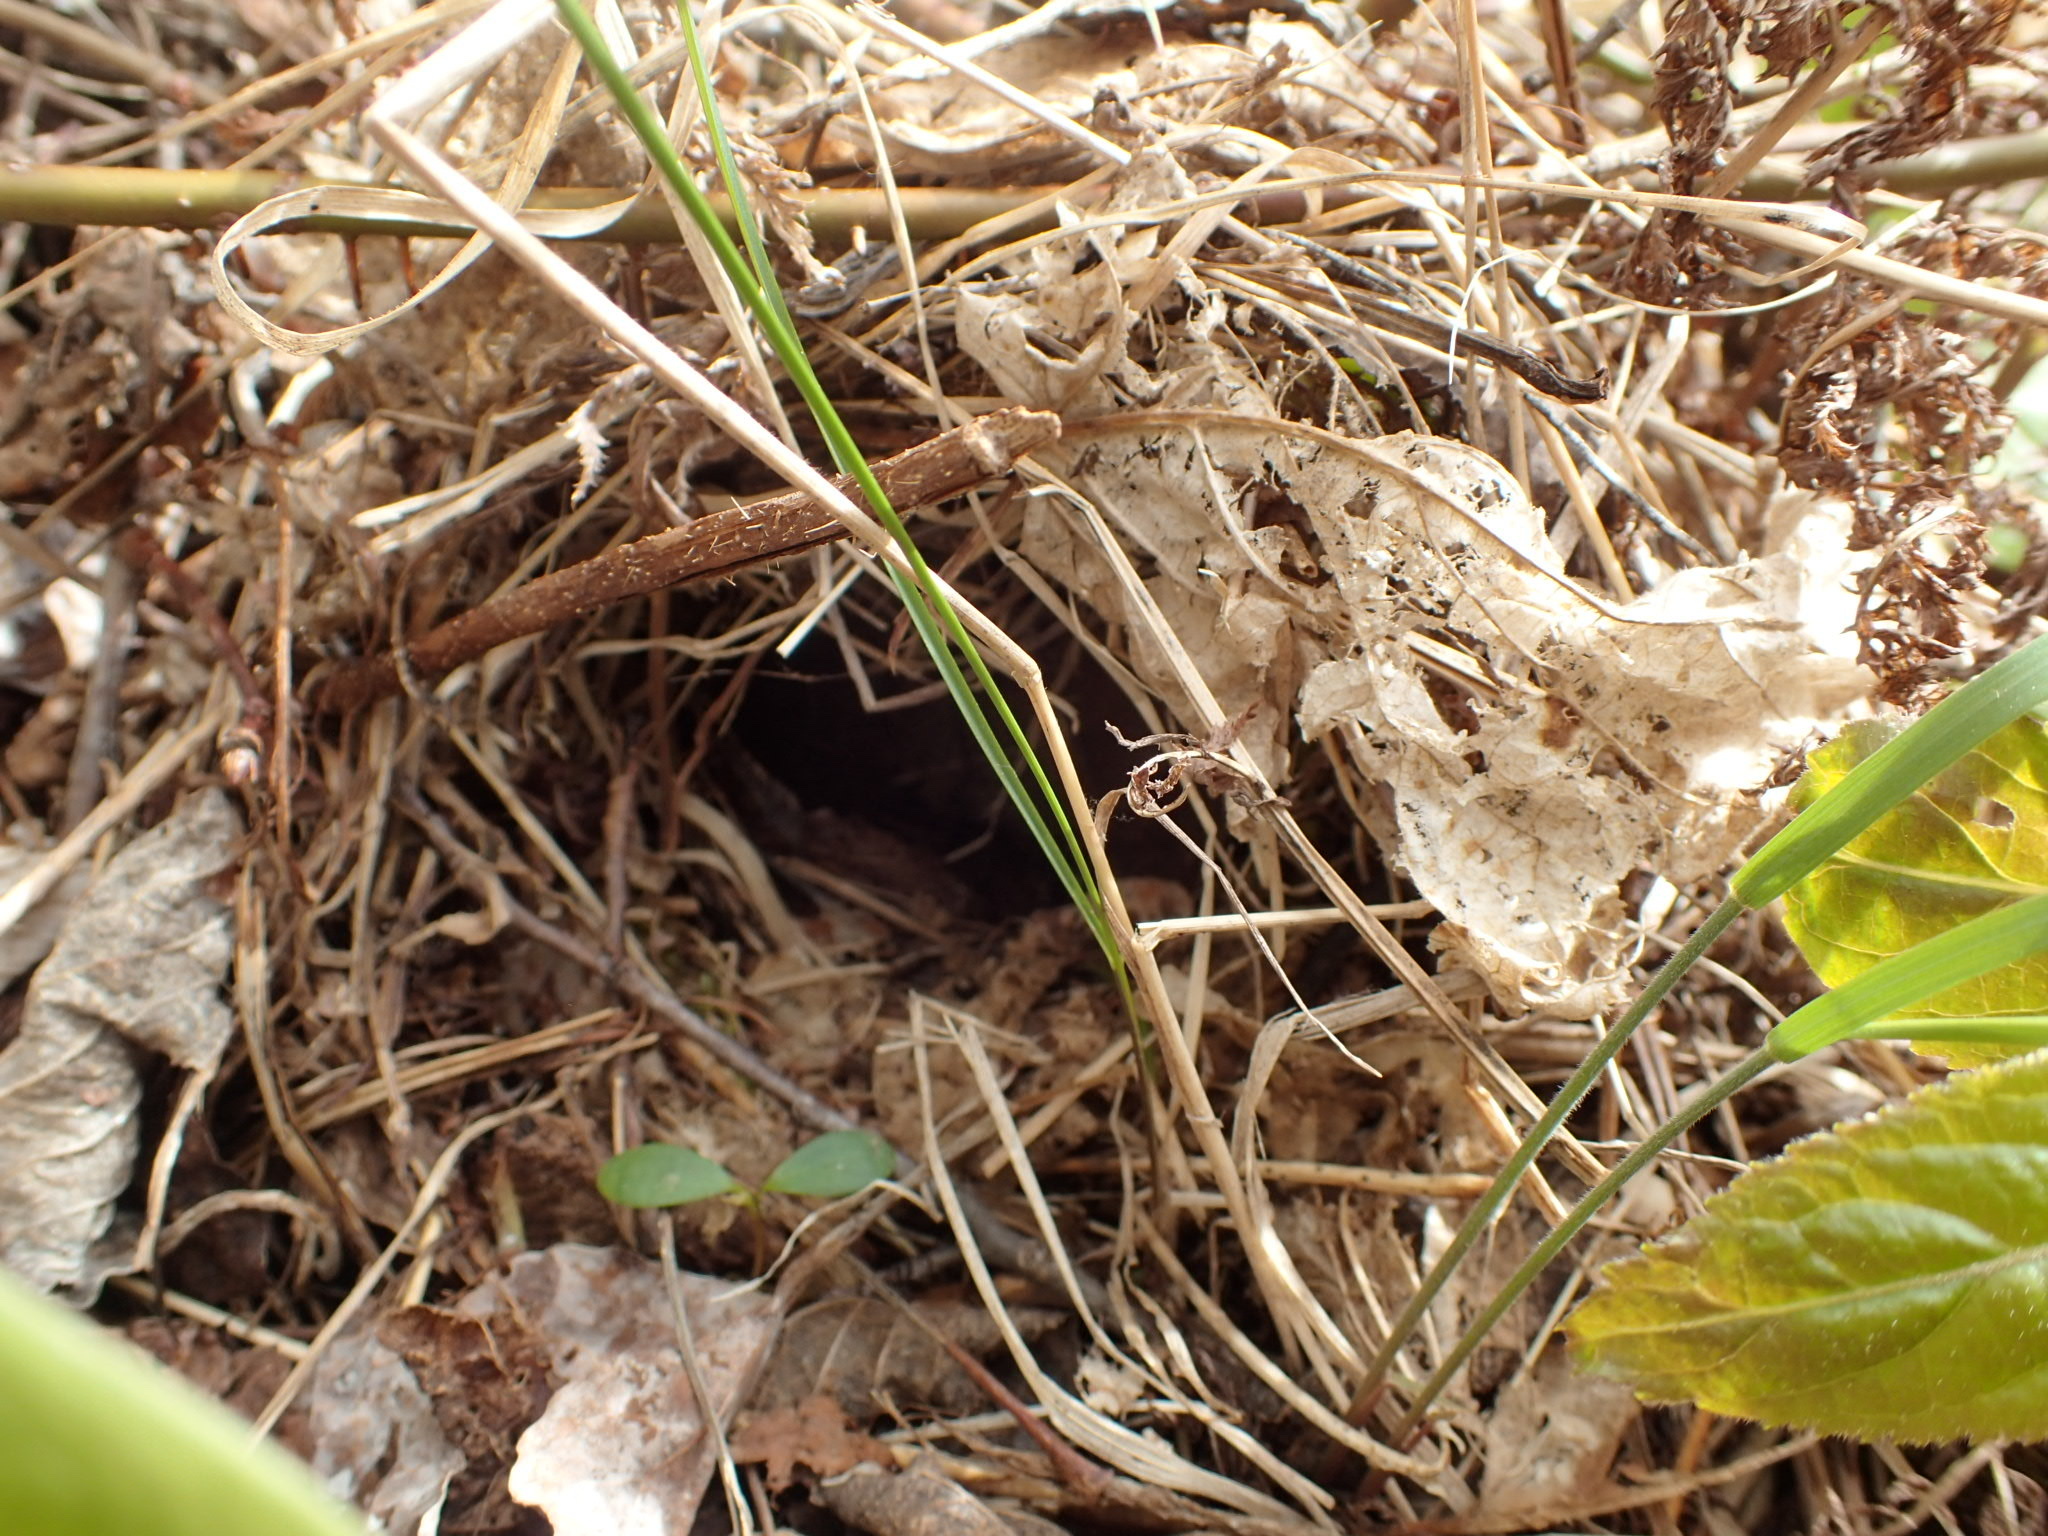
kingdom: Animalia
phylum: Chordata
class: Aves
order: Passeriformes
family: Parulidae
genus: Seiurus
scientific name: Seiurus aurocapilla
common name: Ovenbird
